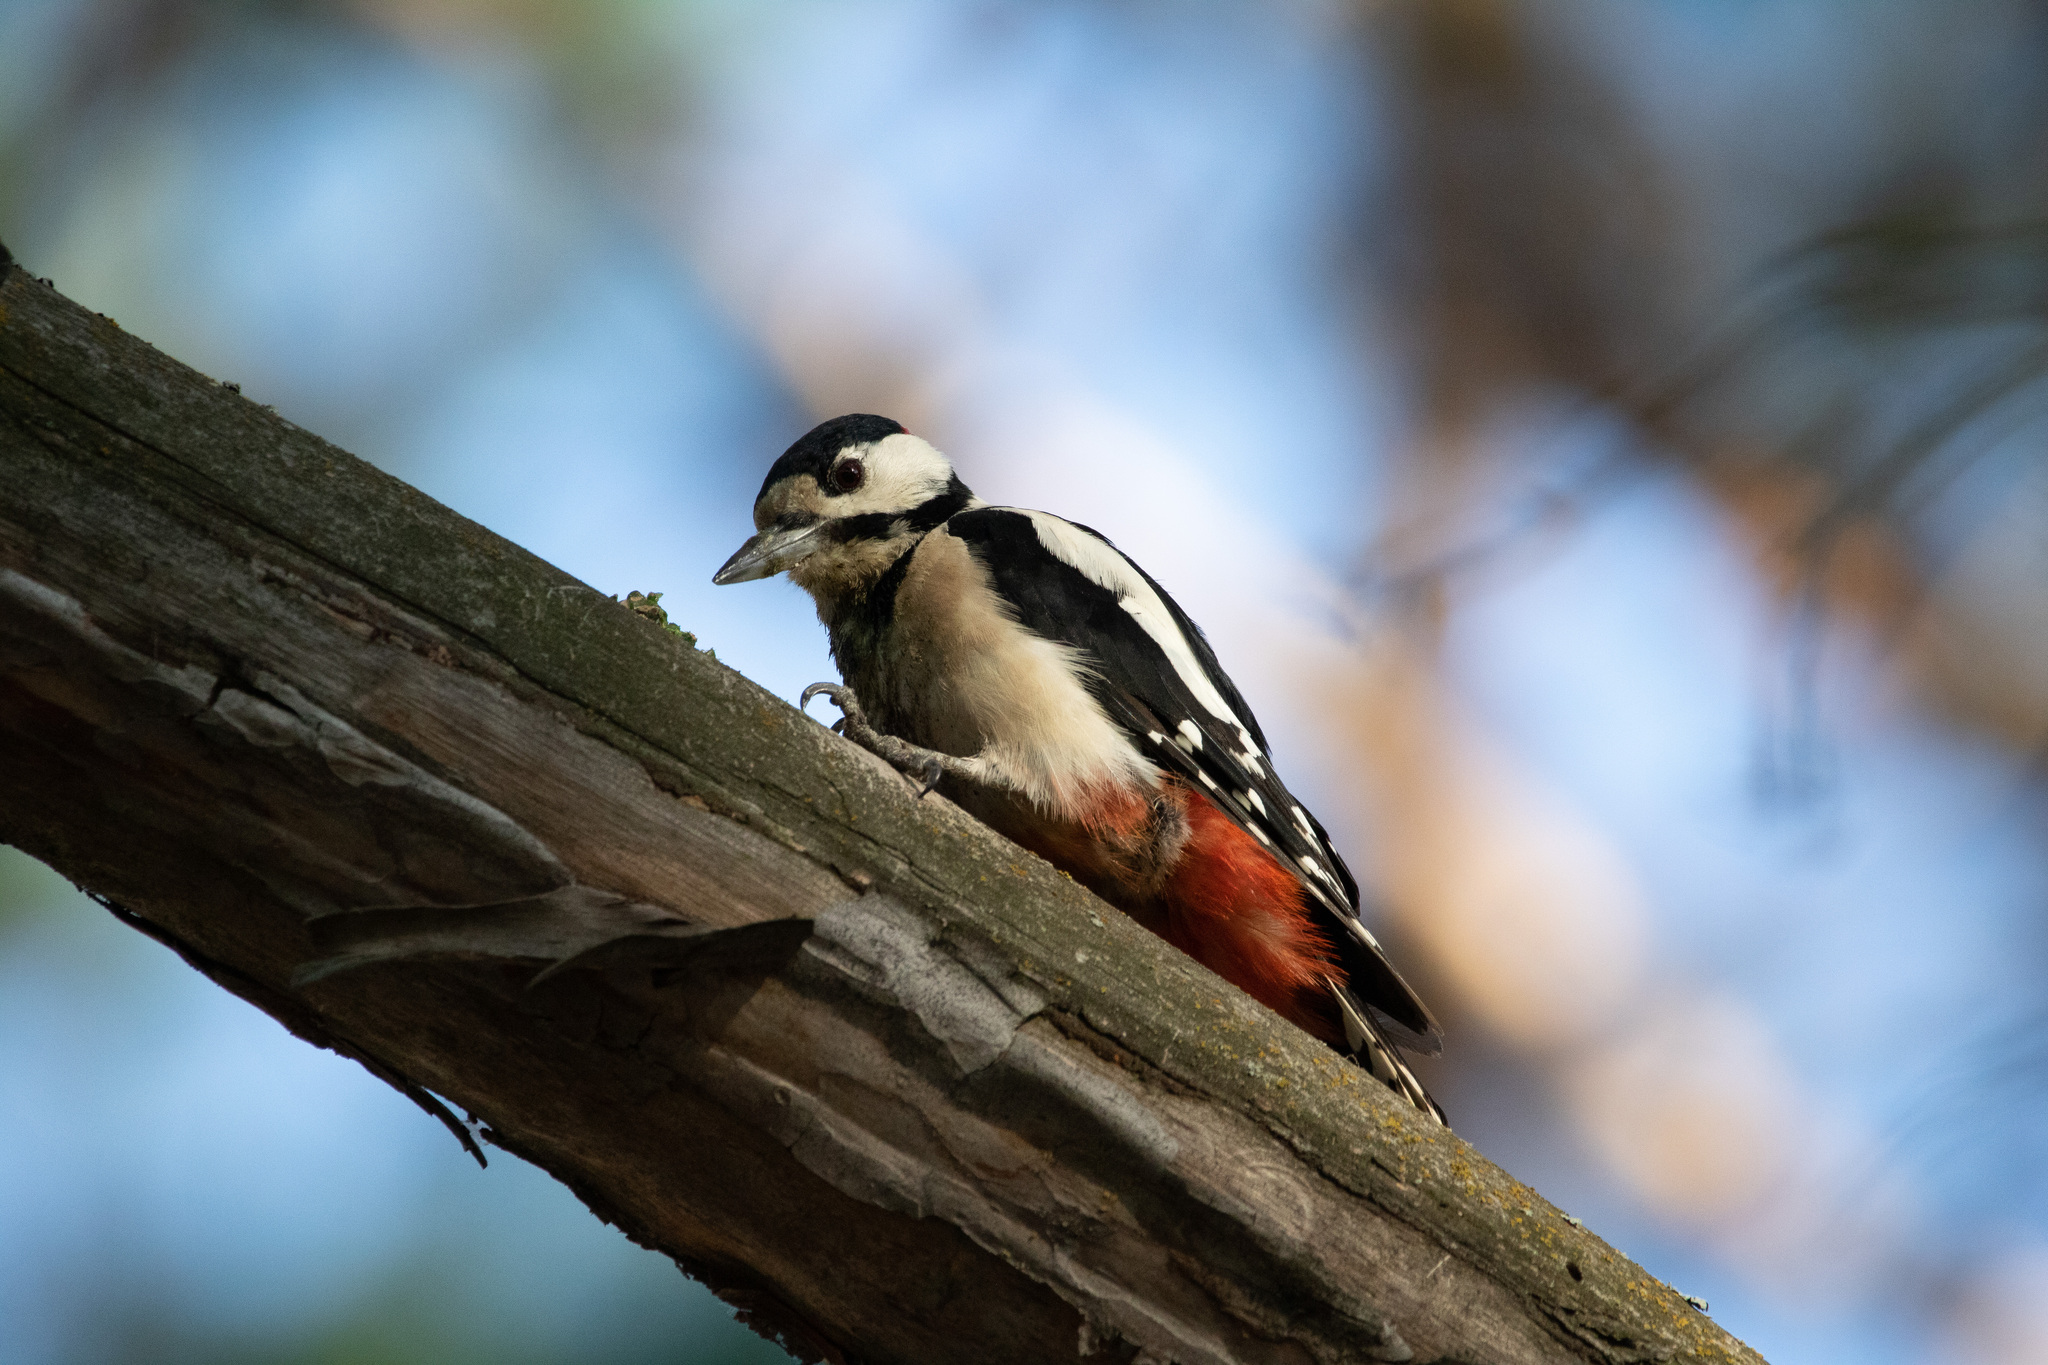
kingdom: Animalia
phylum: Chordata
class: Aves
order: Piciformes
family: Picidae
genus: Dendrocopos
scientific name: Dendrocopos major
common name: Great spotted woodpecker
